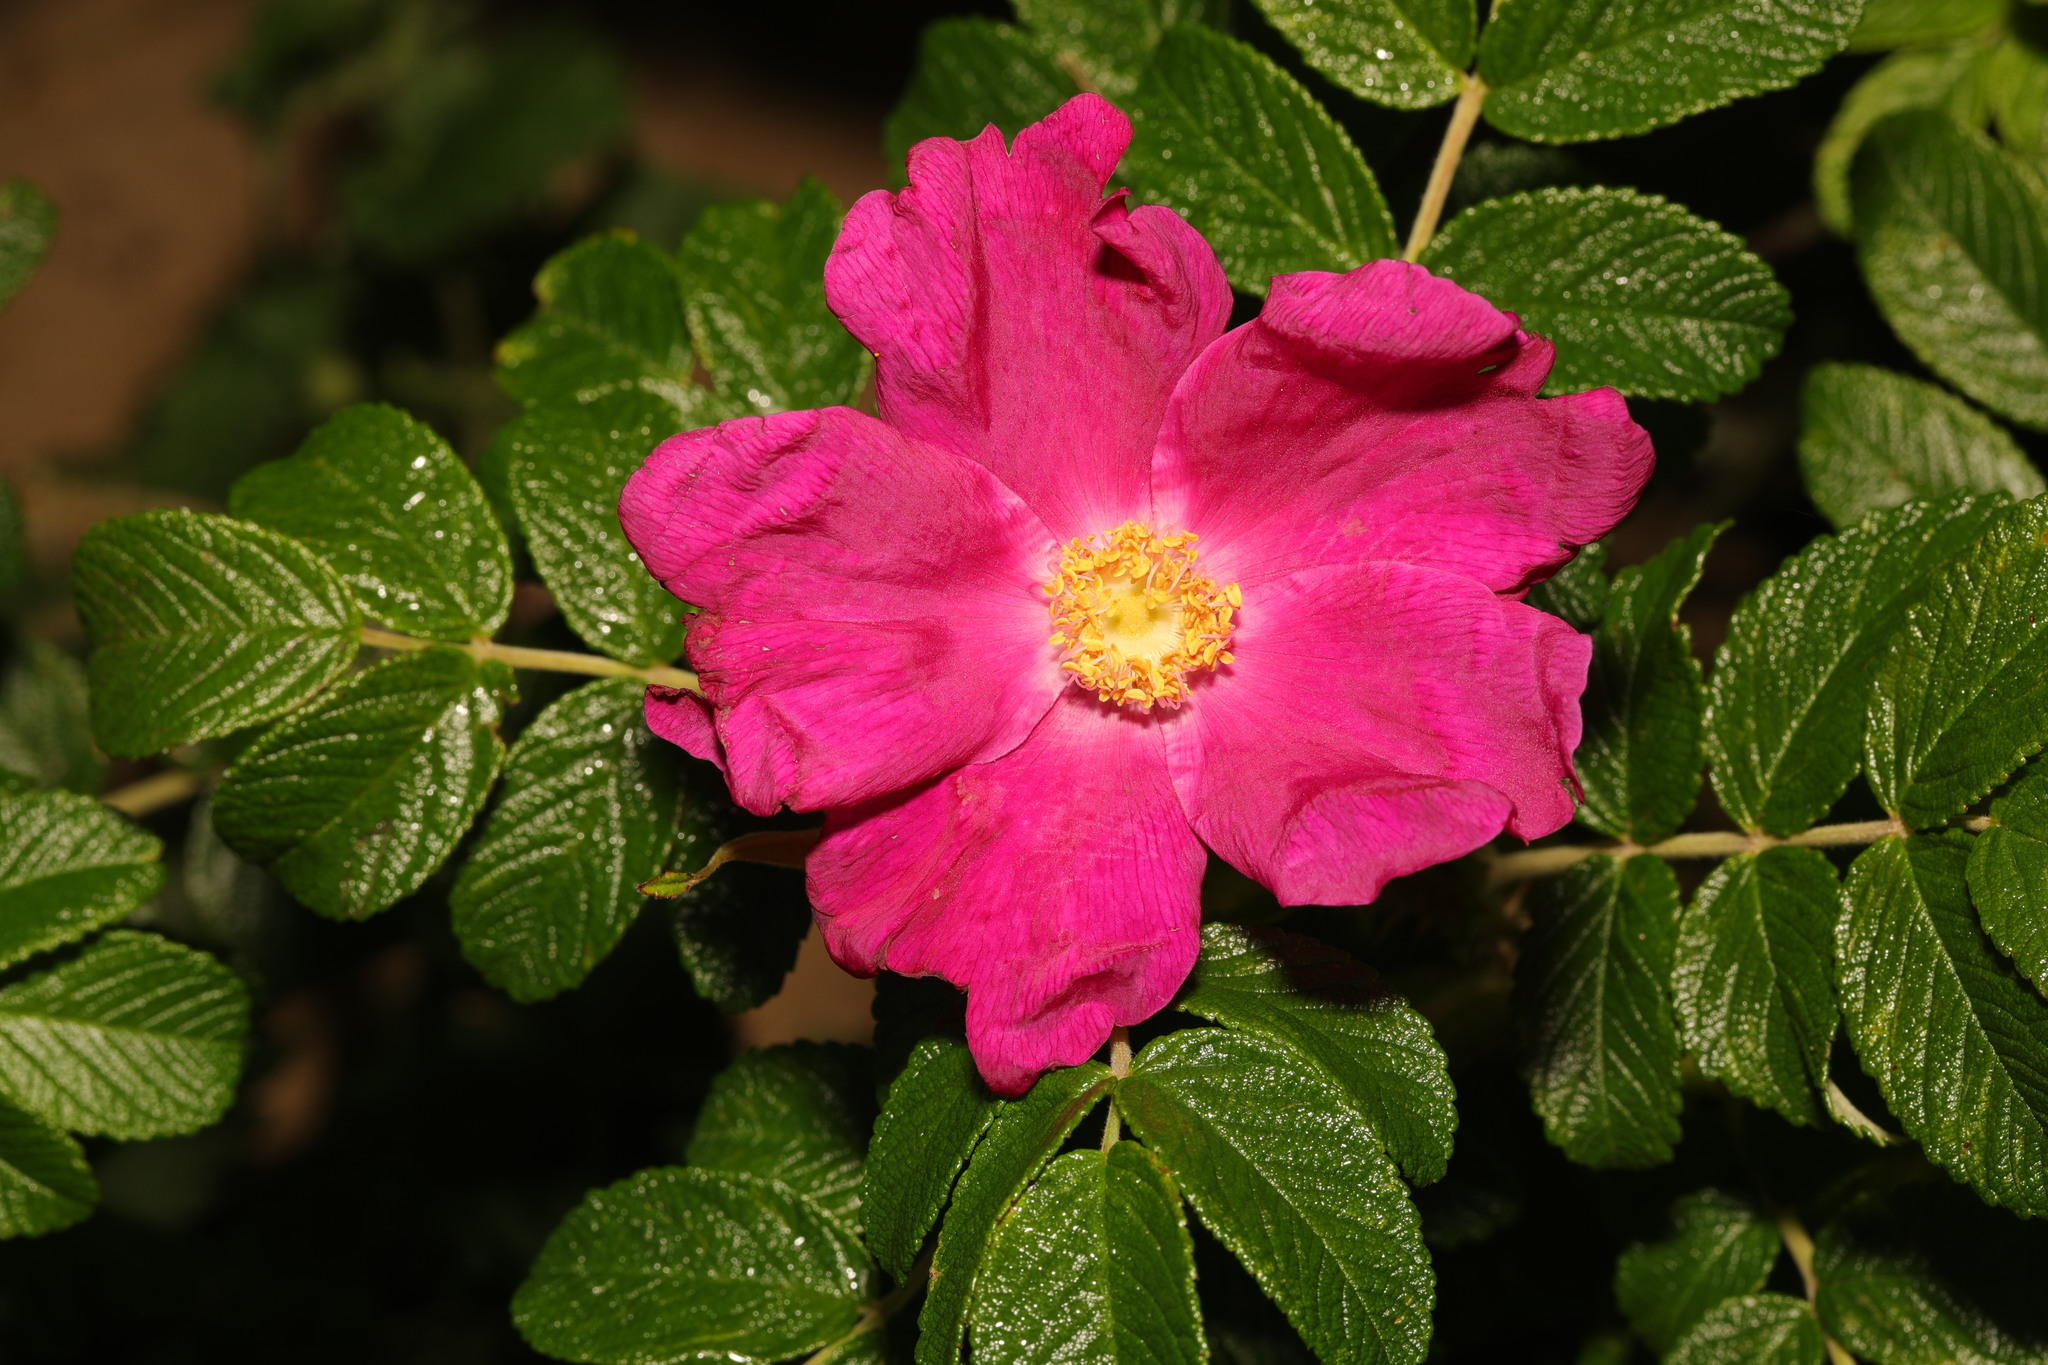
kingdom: Plantae
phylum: Tracheophyta
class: Magnoliopsida
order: Rosales
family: Rosaceae
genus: Rosa
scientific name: Rosa rugosa
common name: Japanese rose
